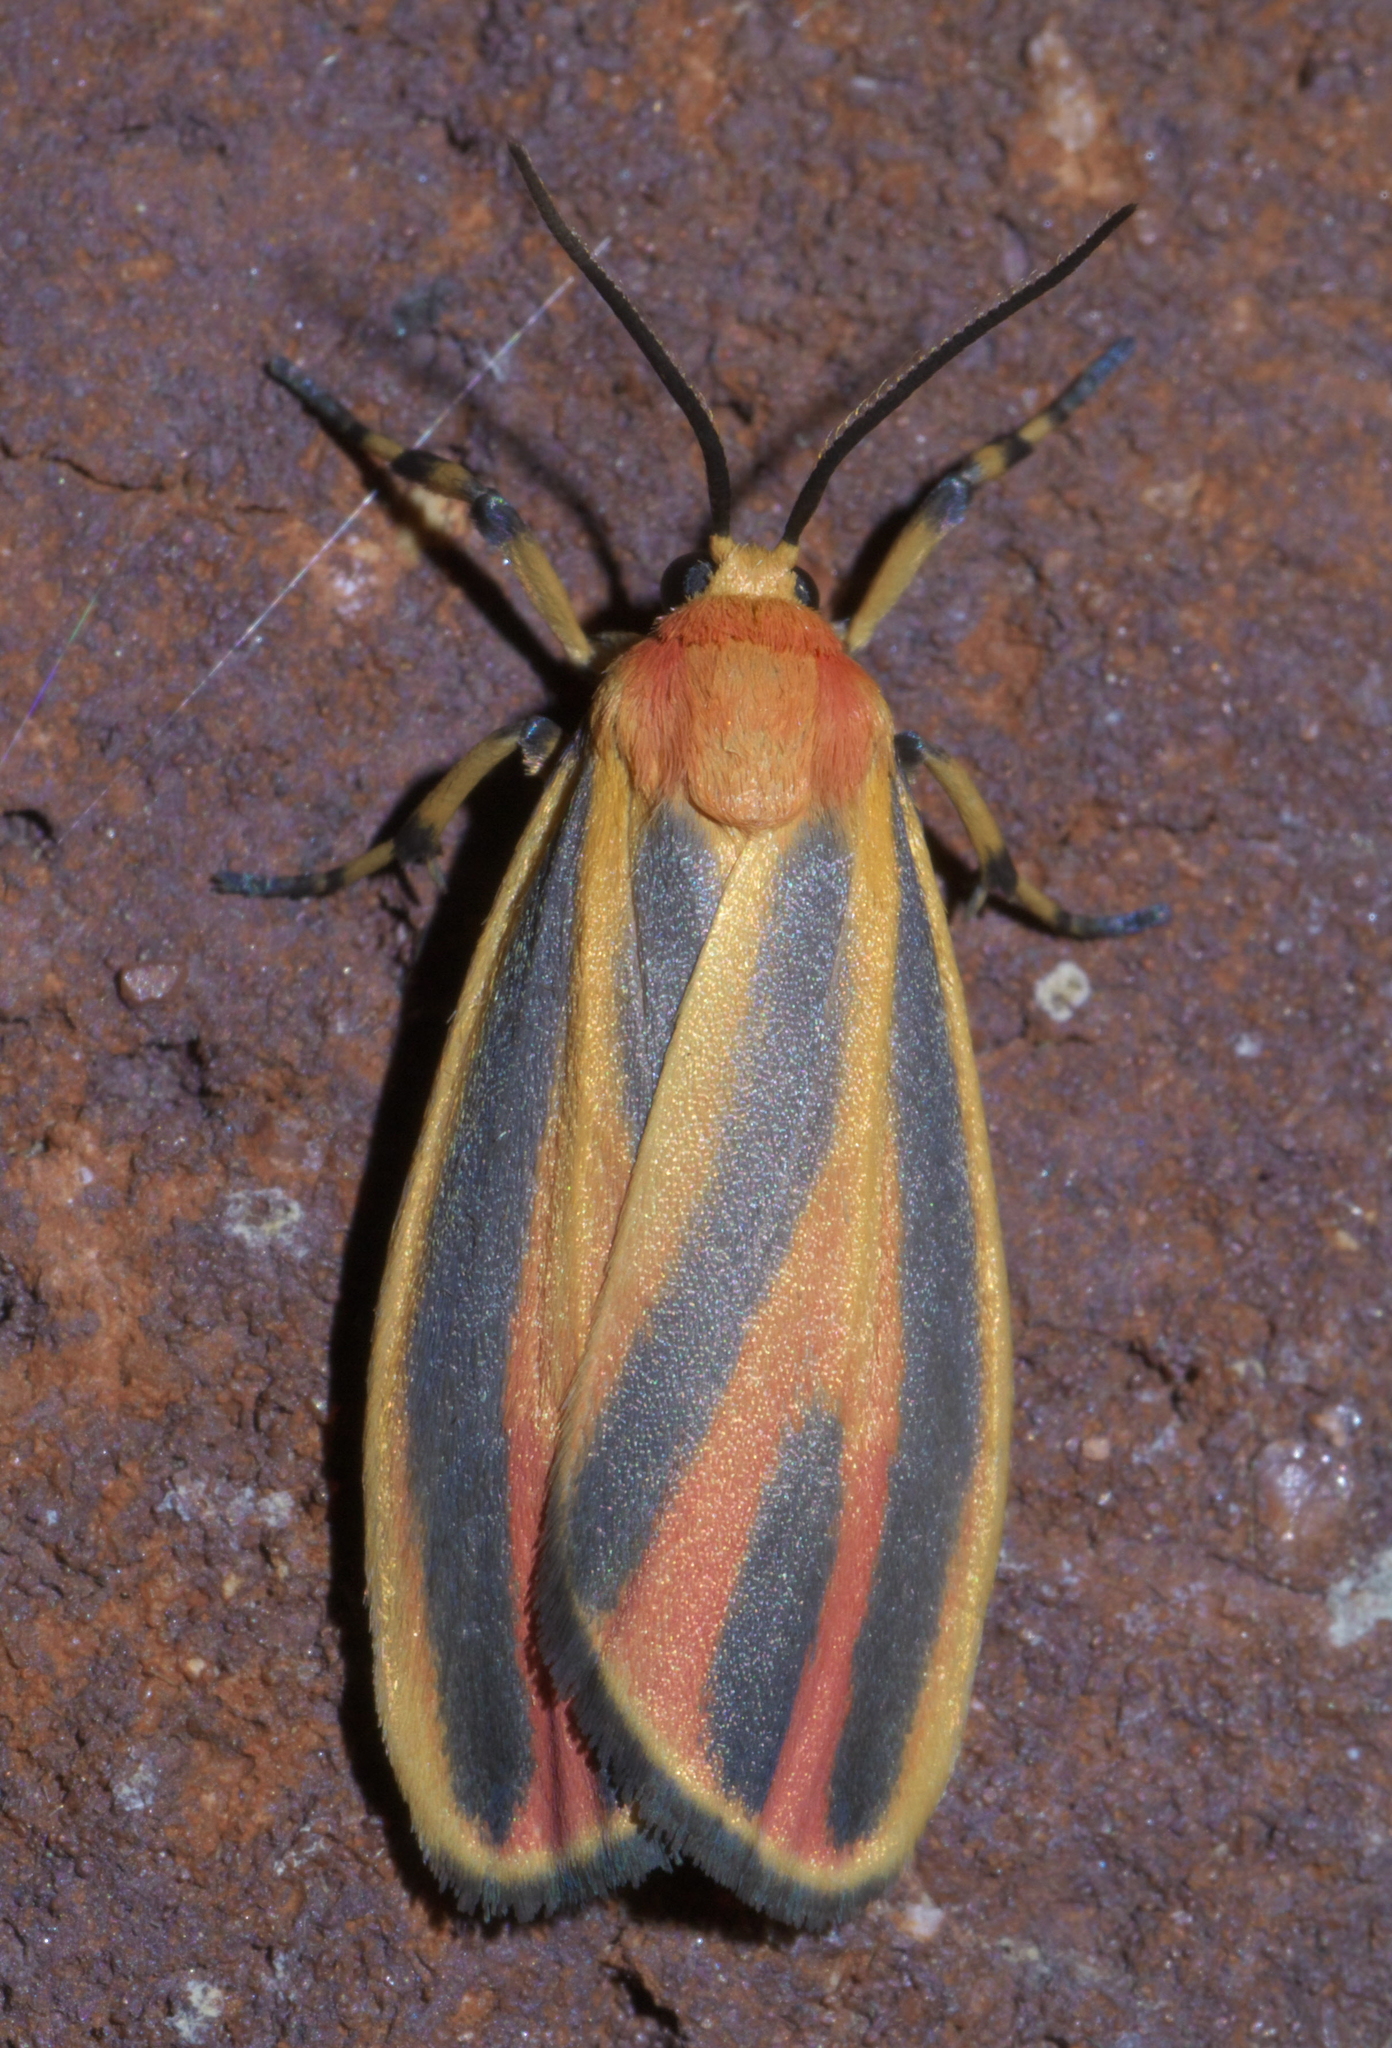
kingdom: Animalia
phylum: Arthropoda
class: Insecta
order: Lepidoptera
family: Erebidae
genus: Hypoprepia
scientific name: Hypoprepia fucosa
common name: Painted lichen moth
